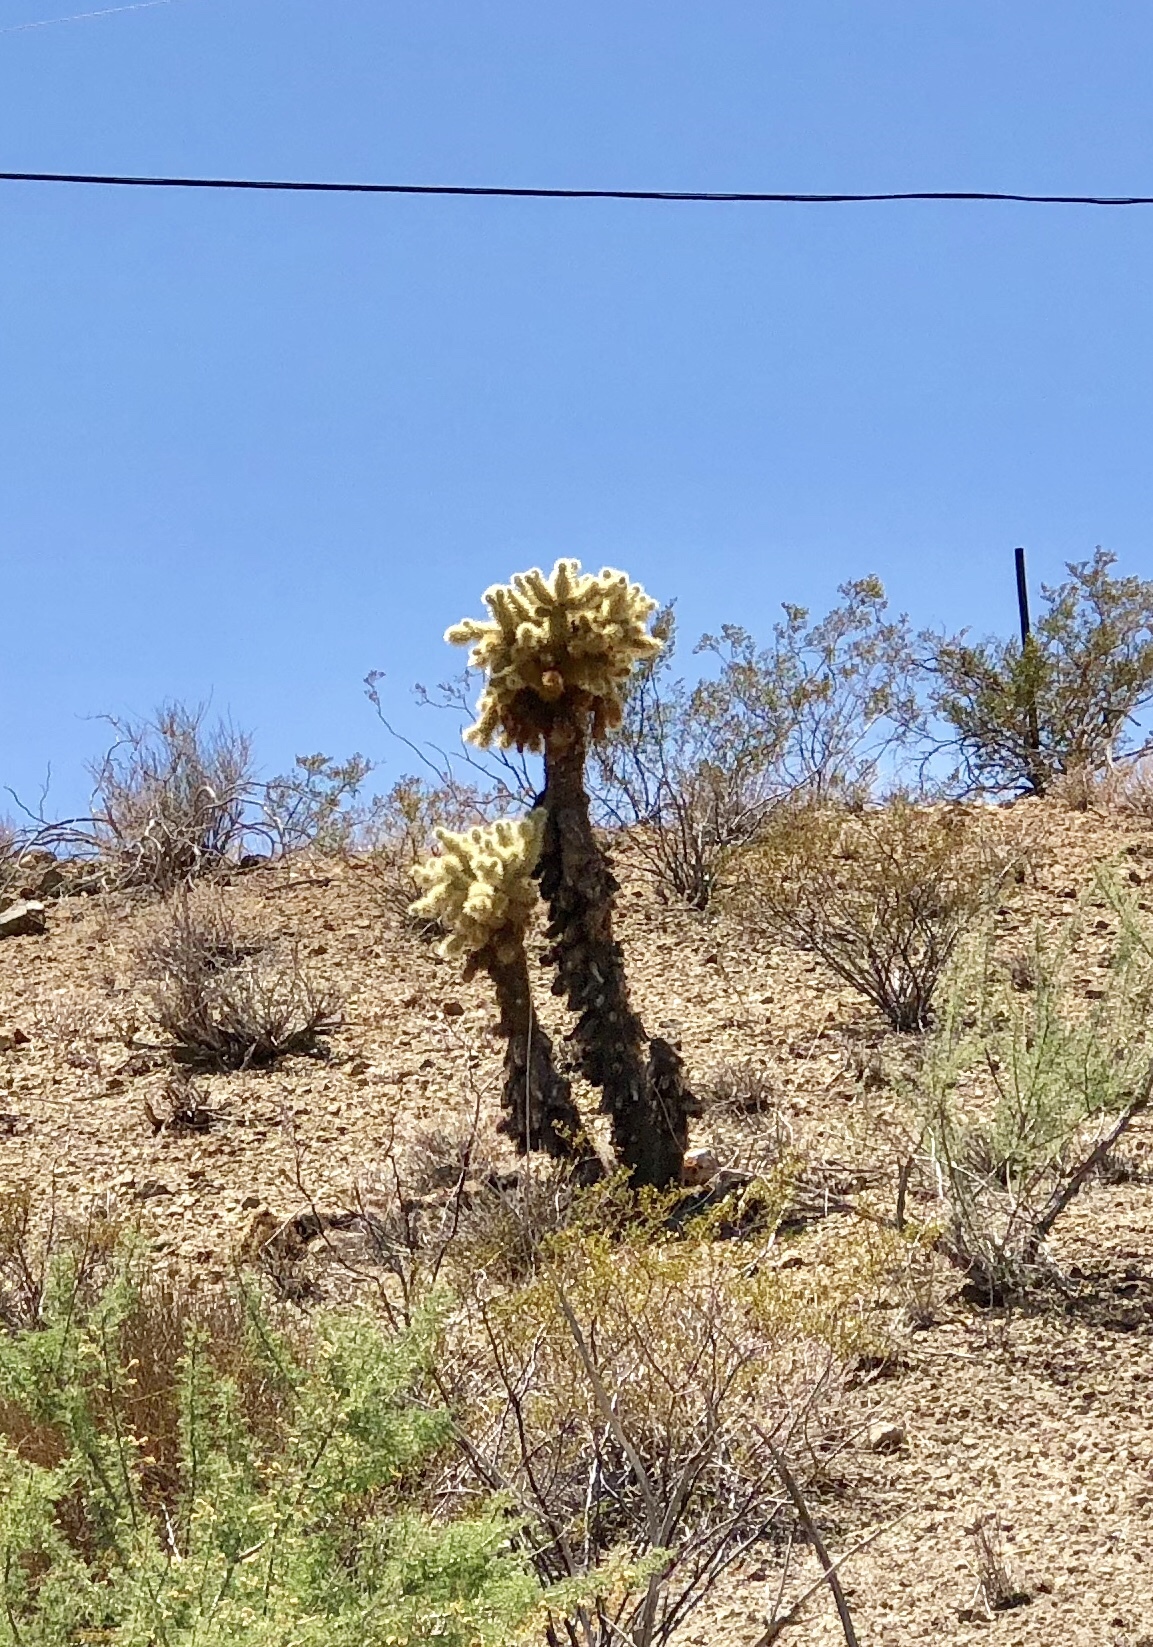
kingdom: Plantae
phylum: Tracheophyta
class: Magnoliopsida
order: Caryophyllales
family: Cactaceae
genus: Cylindropuntia
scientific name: Cylindropuntia fosbergii
